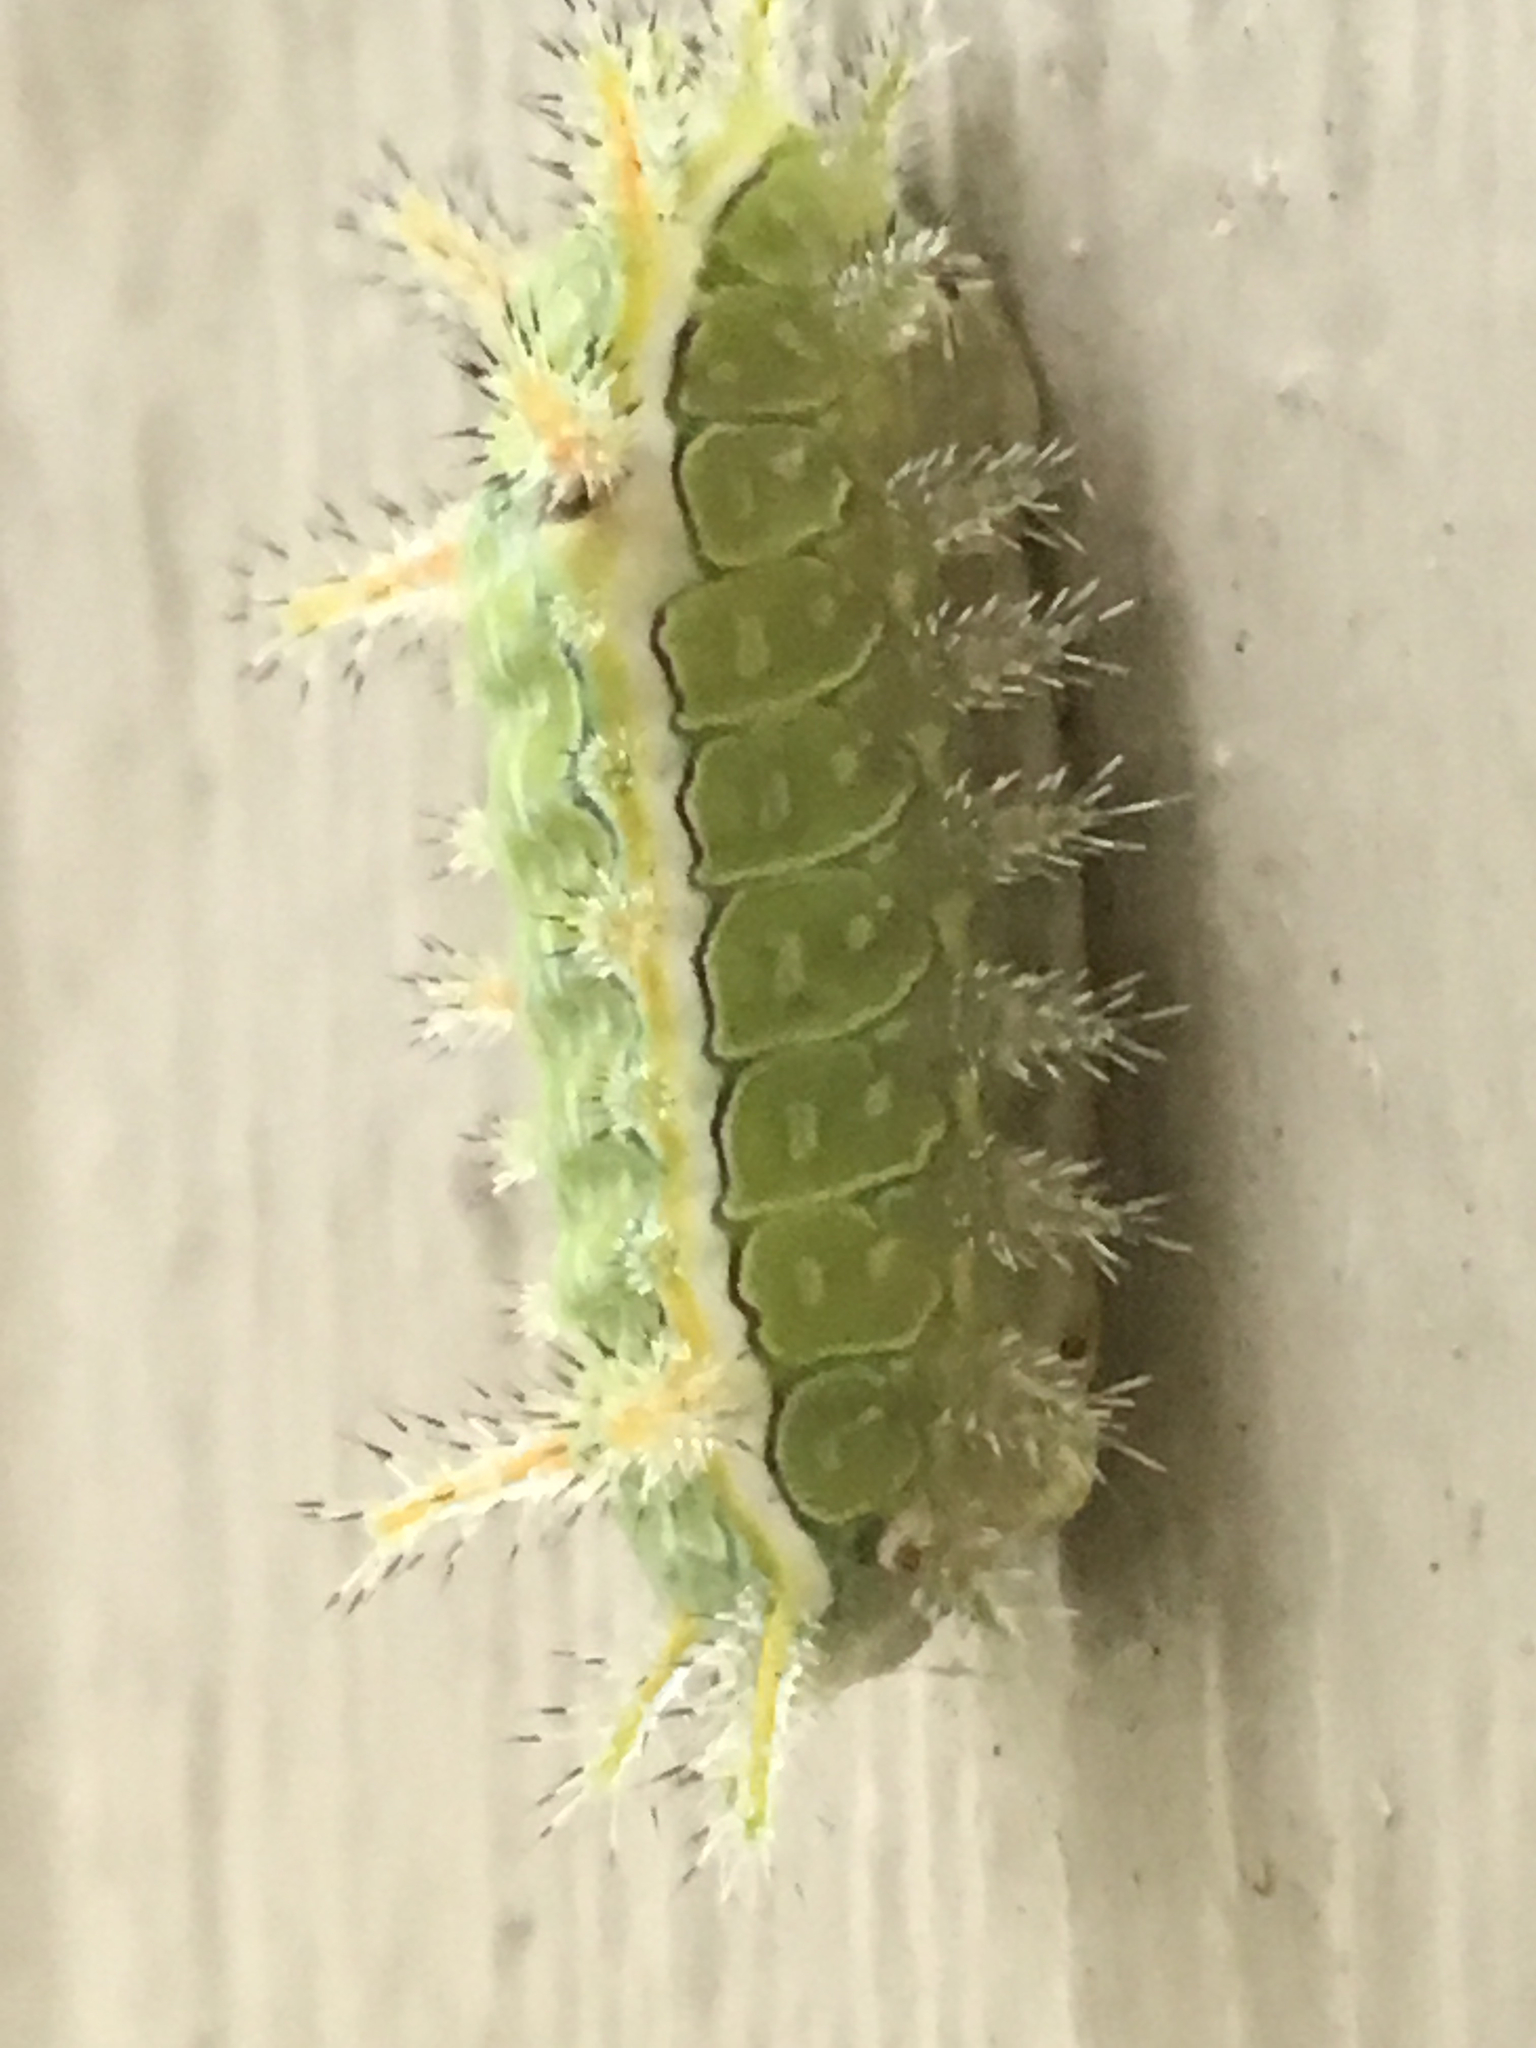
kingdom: Animalia
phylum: Arthropoda
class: Insecta
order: Lepidoptera
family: Limacodidae
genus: Euclea
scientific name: Euclea incisa
